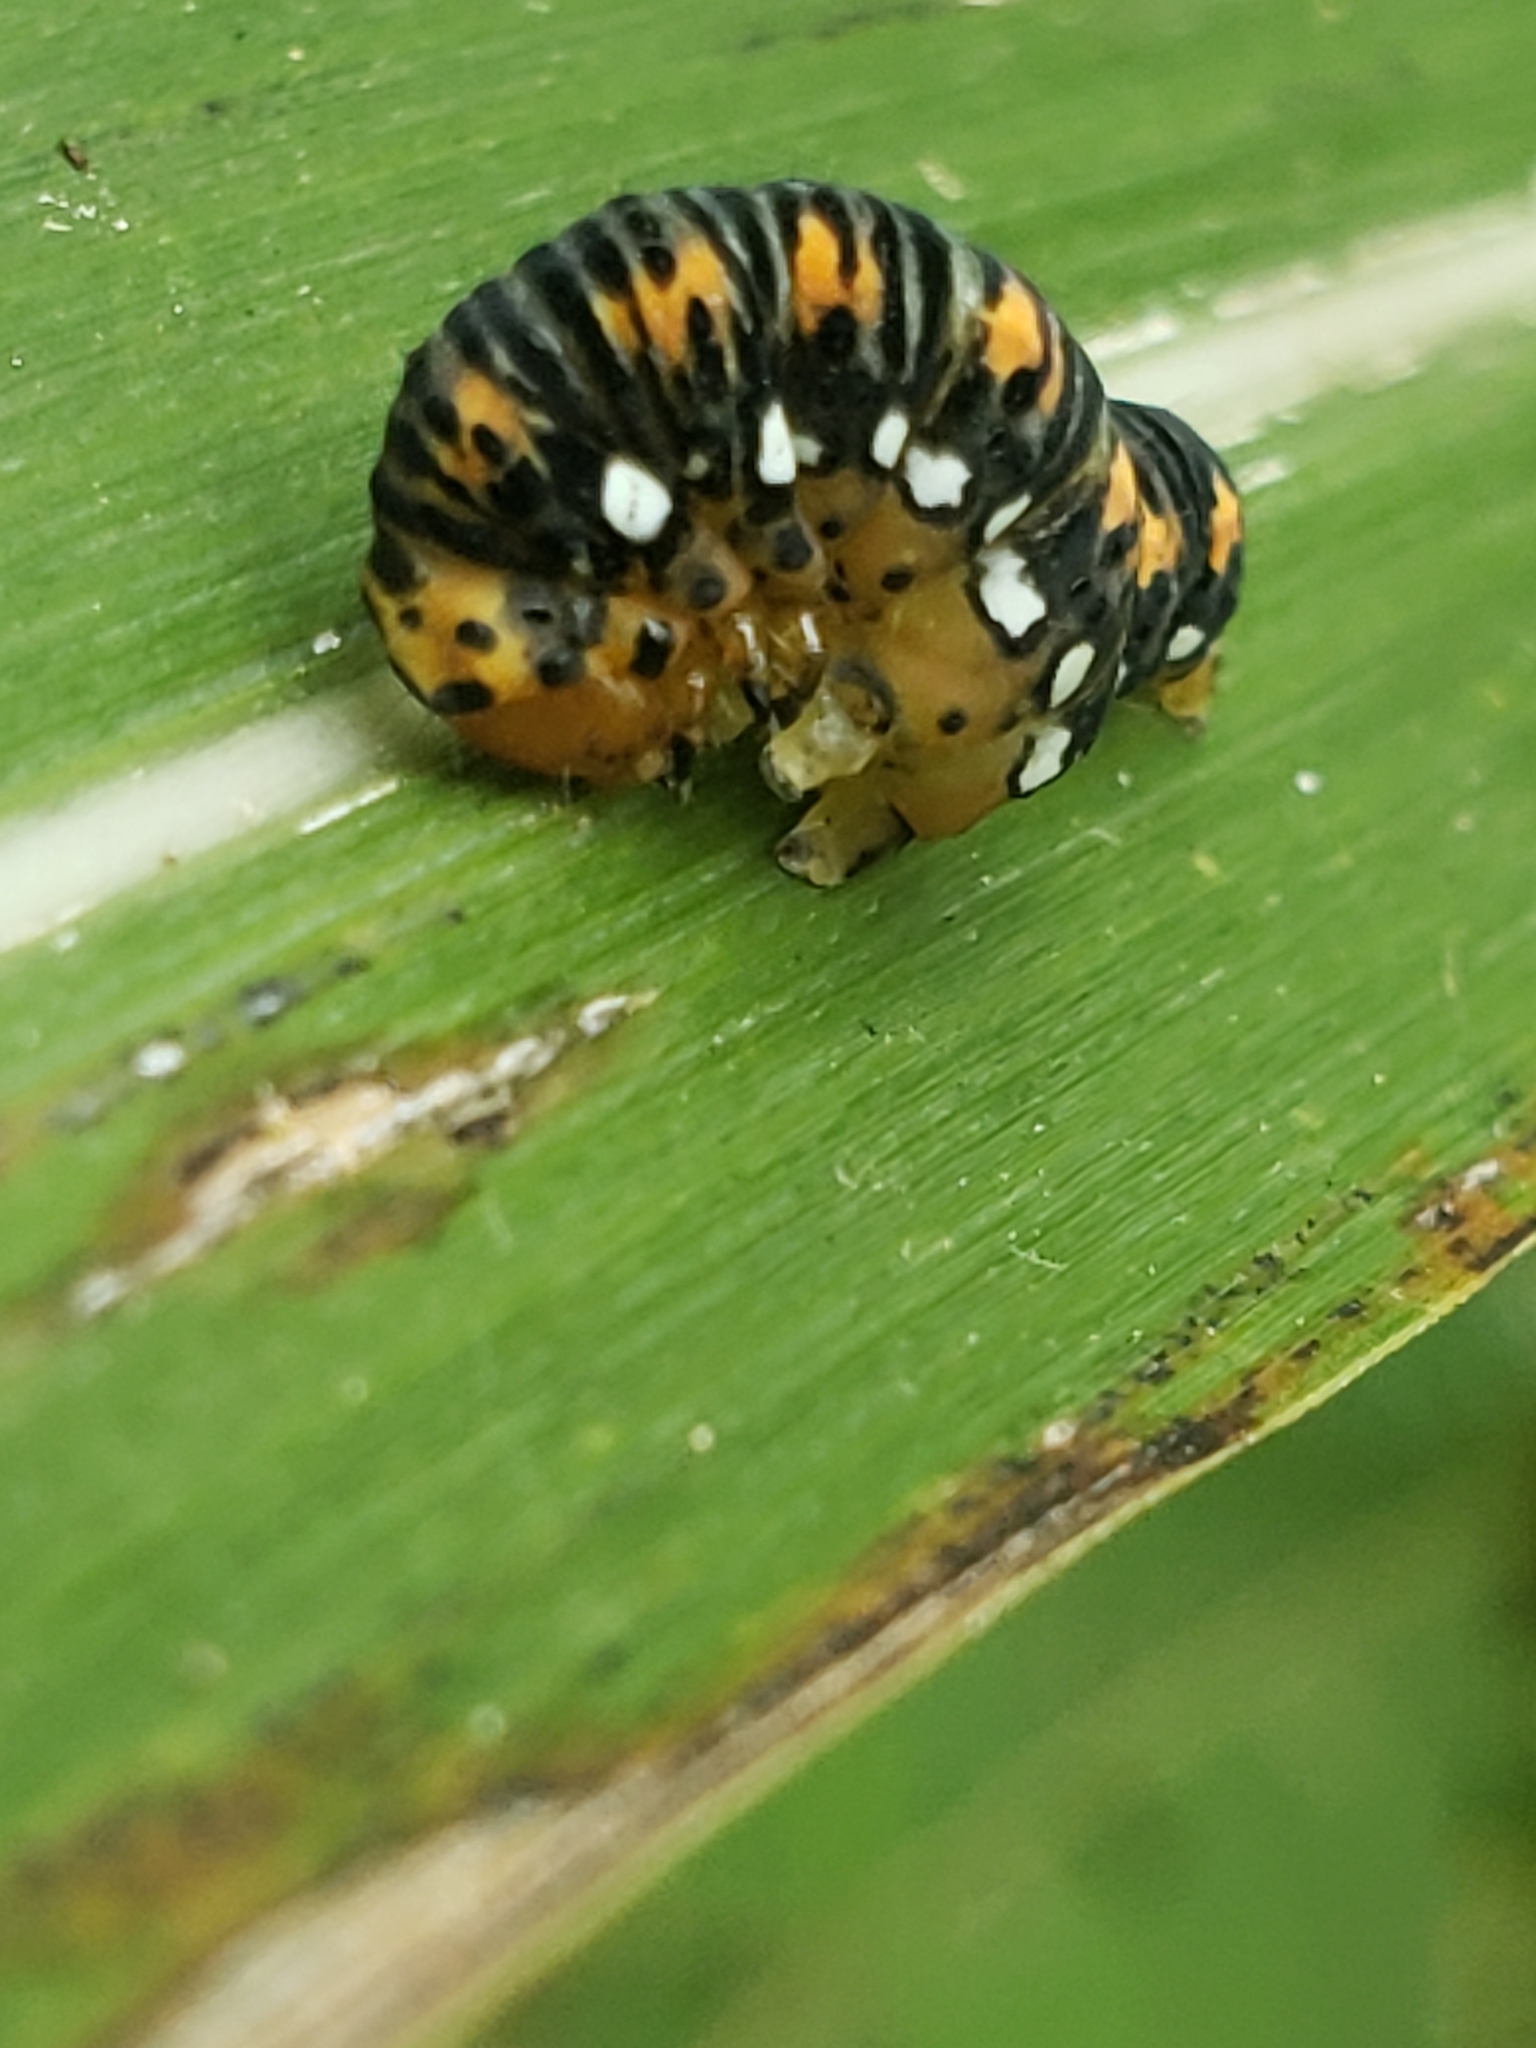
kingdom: Animalia
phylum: Arthropoda
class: Insecta
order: Lepidoptera
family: Noctuidae
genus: Basilodes
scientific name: Basilodes pepita
